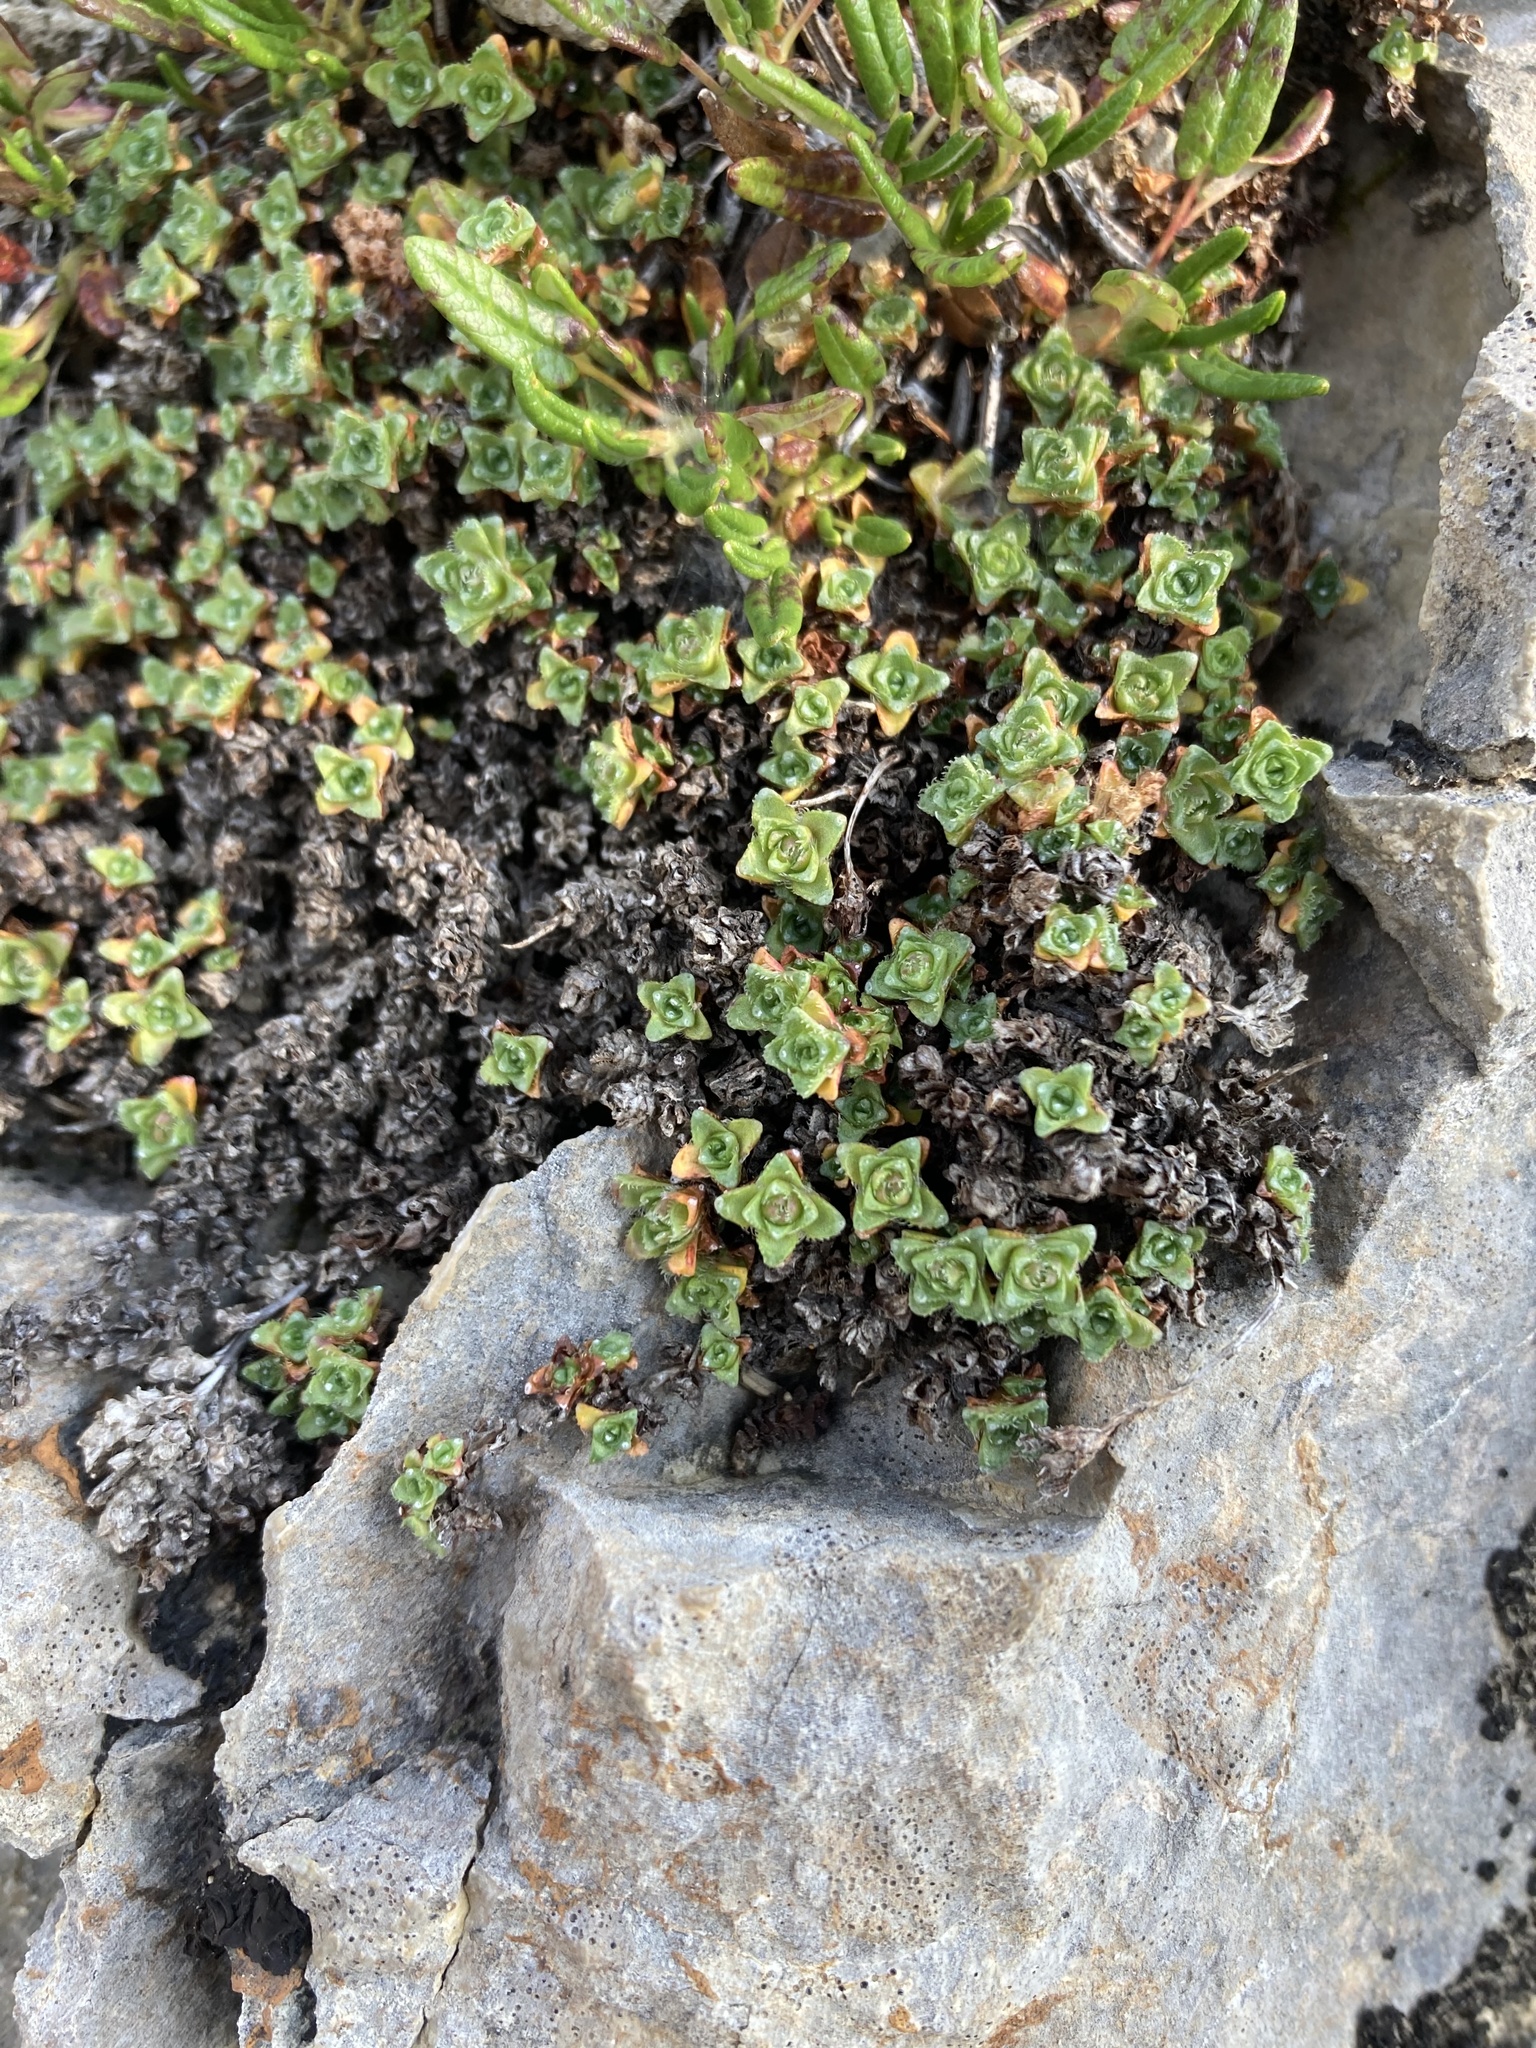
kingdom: Plantae
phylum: Tracheophyta
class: Magnoliopsida
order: Saxifragales
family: Saxifragaceae
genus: Saxifraga
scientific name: Saxifraga oppositifolia
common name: Purple saxifrage
